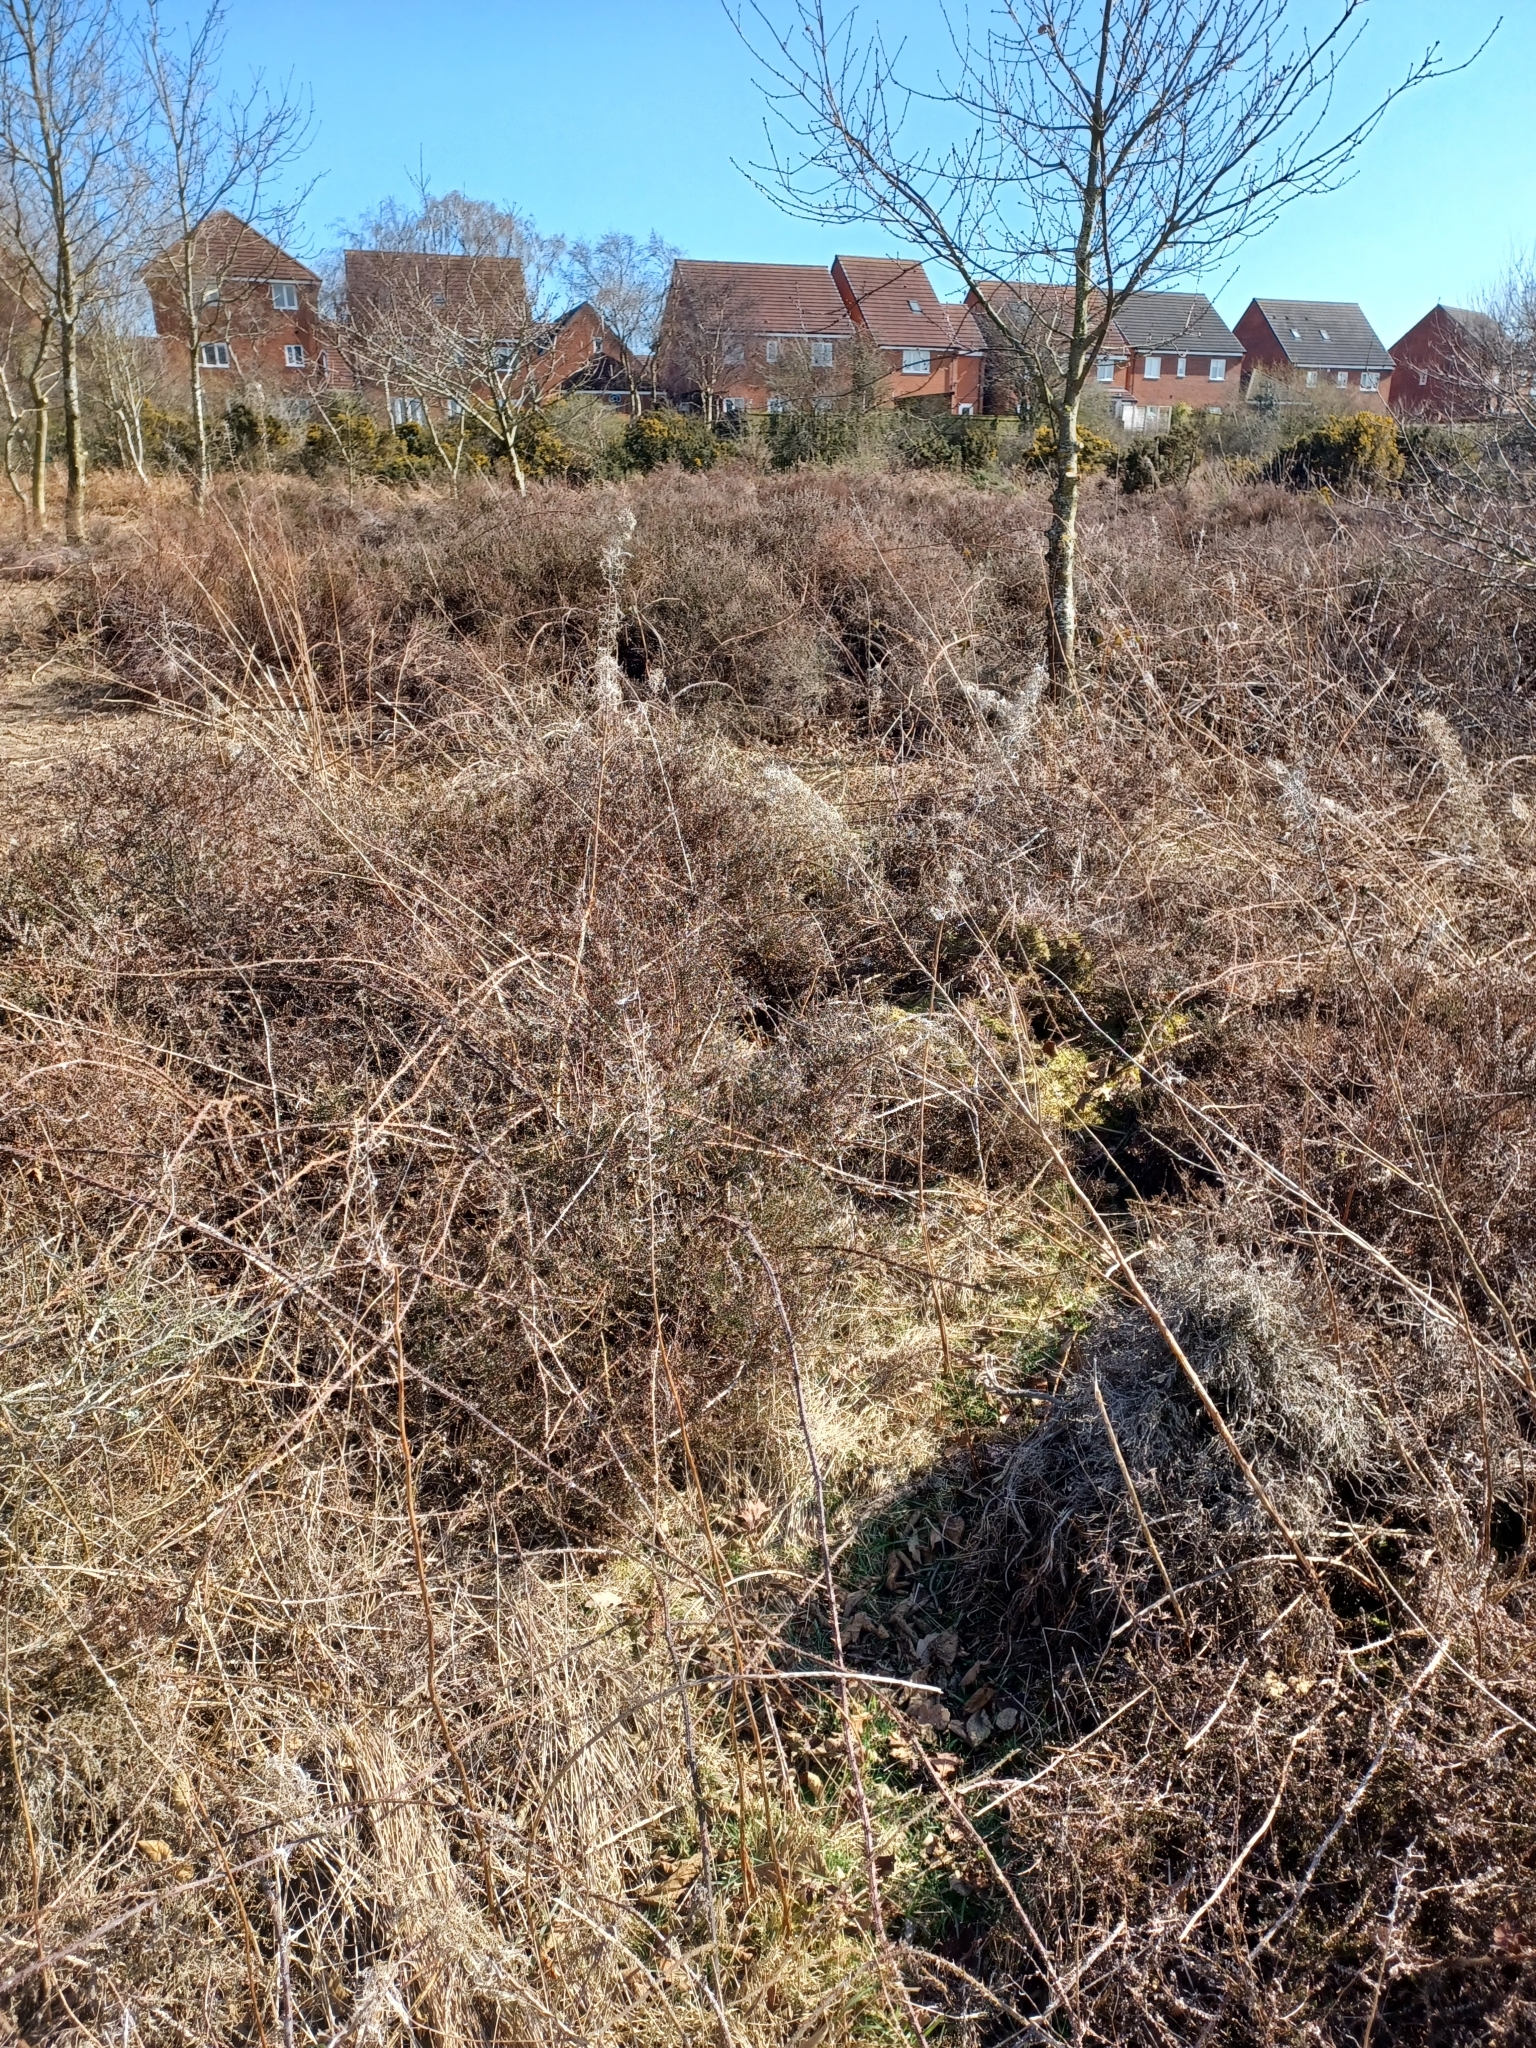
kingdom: Plantae
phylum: Tracheophyta
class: Magnoliopsida
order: Ericales
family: Ericaceae
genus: Calluna
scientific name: Calluna vulgaris
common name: Heather
